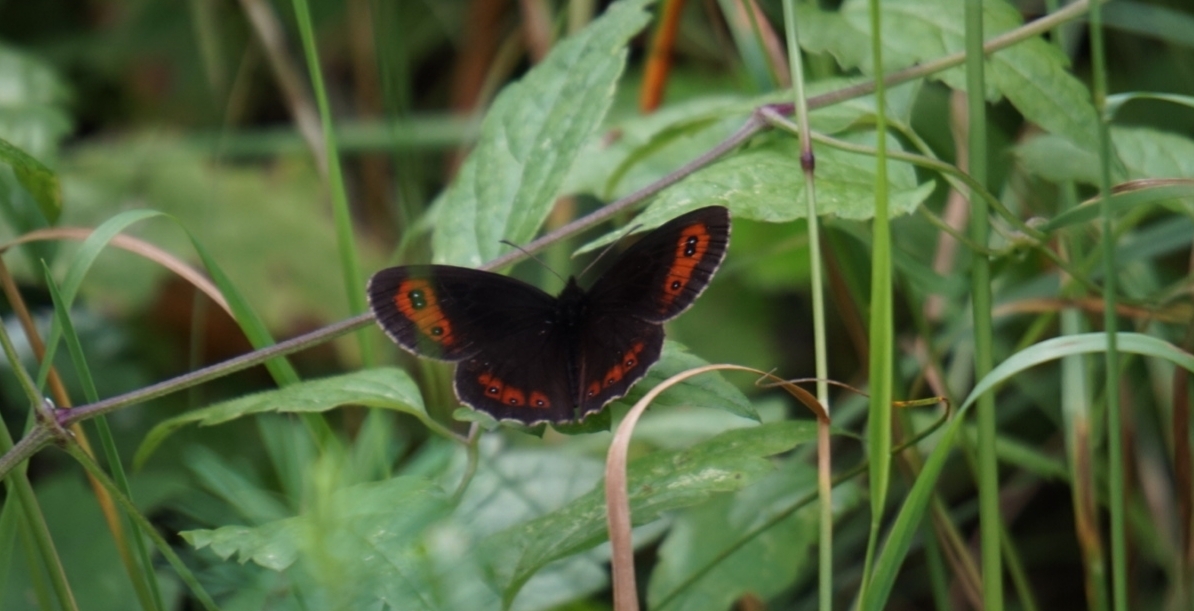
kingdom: Animalia
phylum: Arthropoda
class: Insecta
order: Lepidoptera
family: Nymphalidae
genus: Erebia
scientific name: Erebia aethiops
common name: Scotch argus
